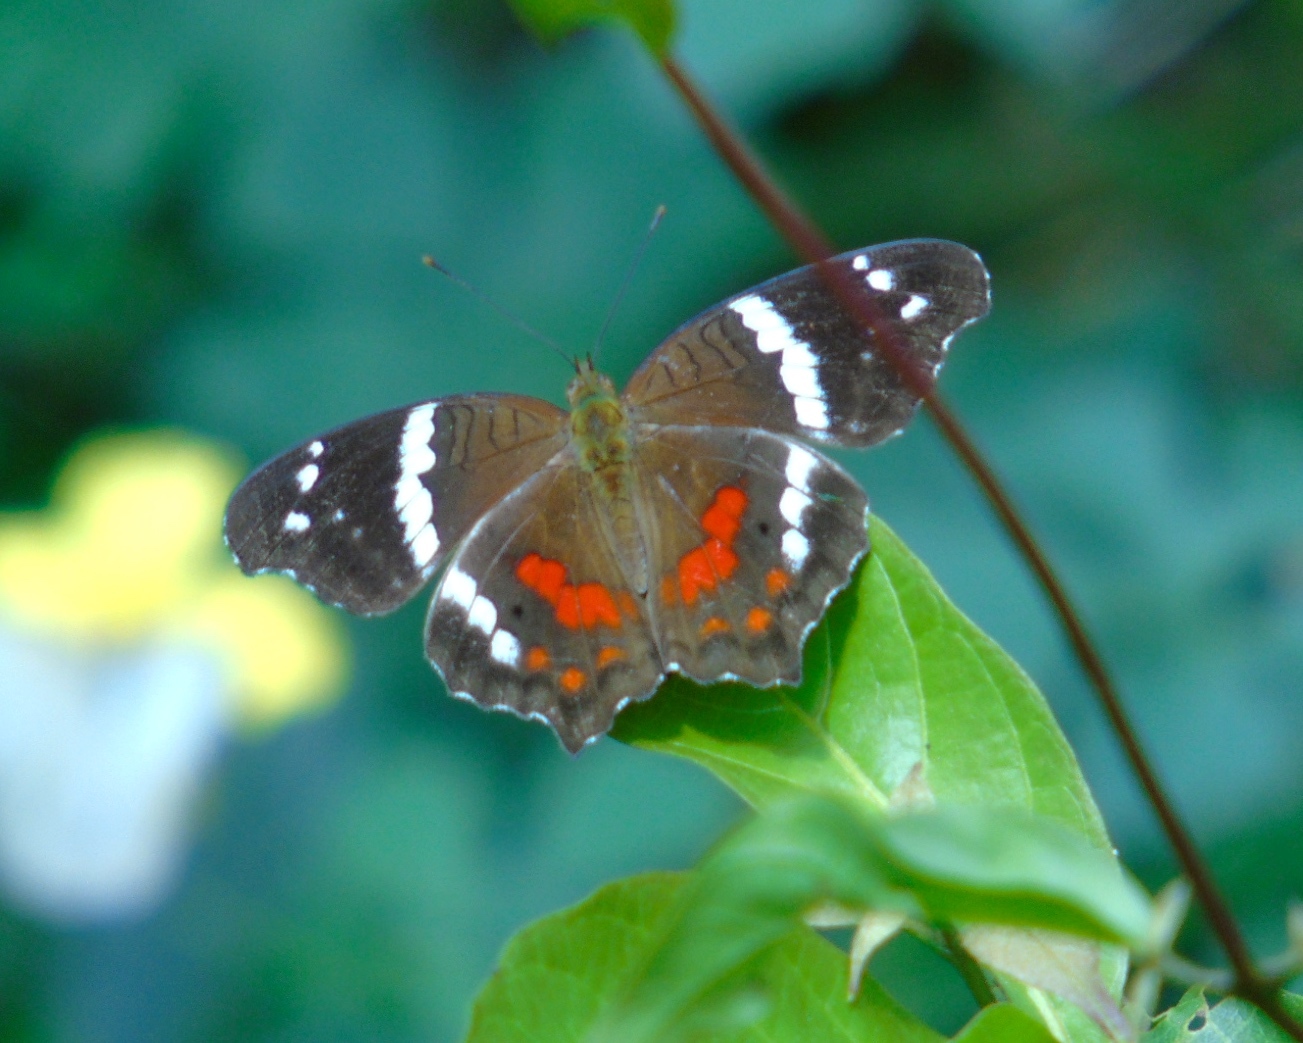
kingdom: Animalia
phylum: Arthropoda
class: Insecta
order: Lepidoptera
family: Nymphalidae
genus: Anartia
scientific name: Anartia fatima
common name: Banded peacock
